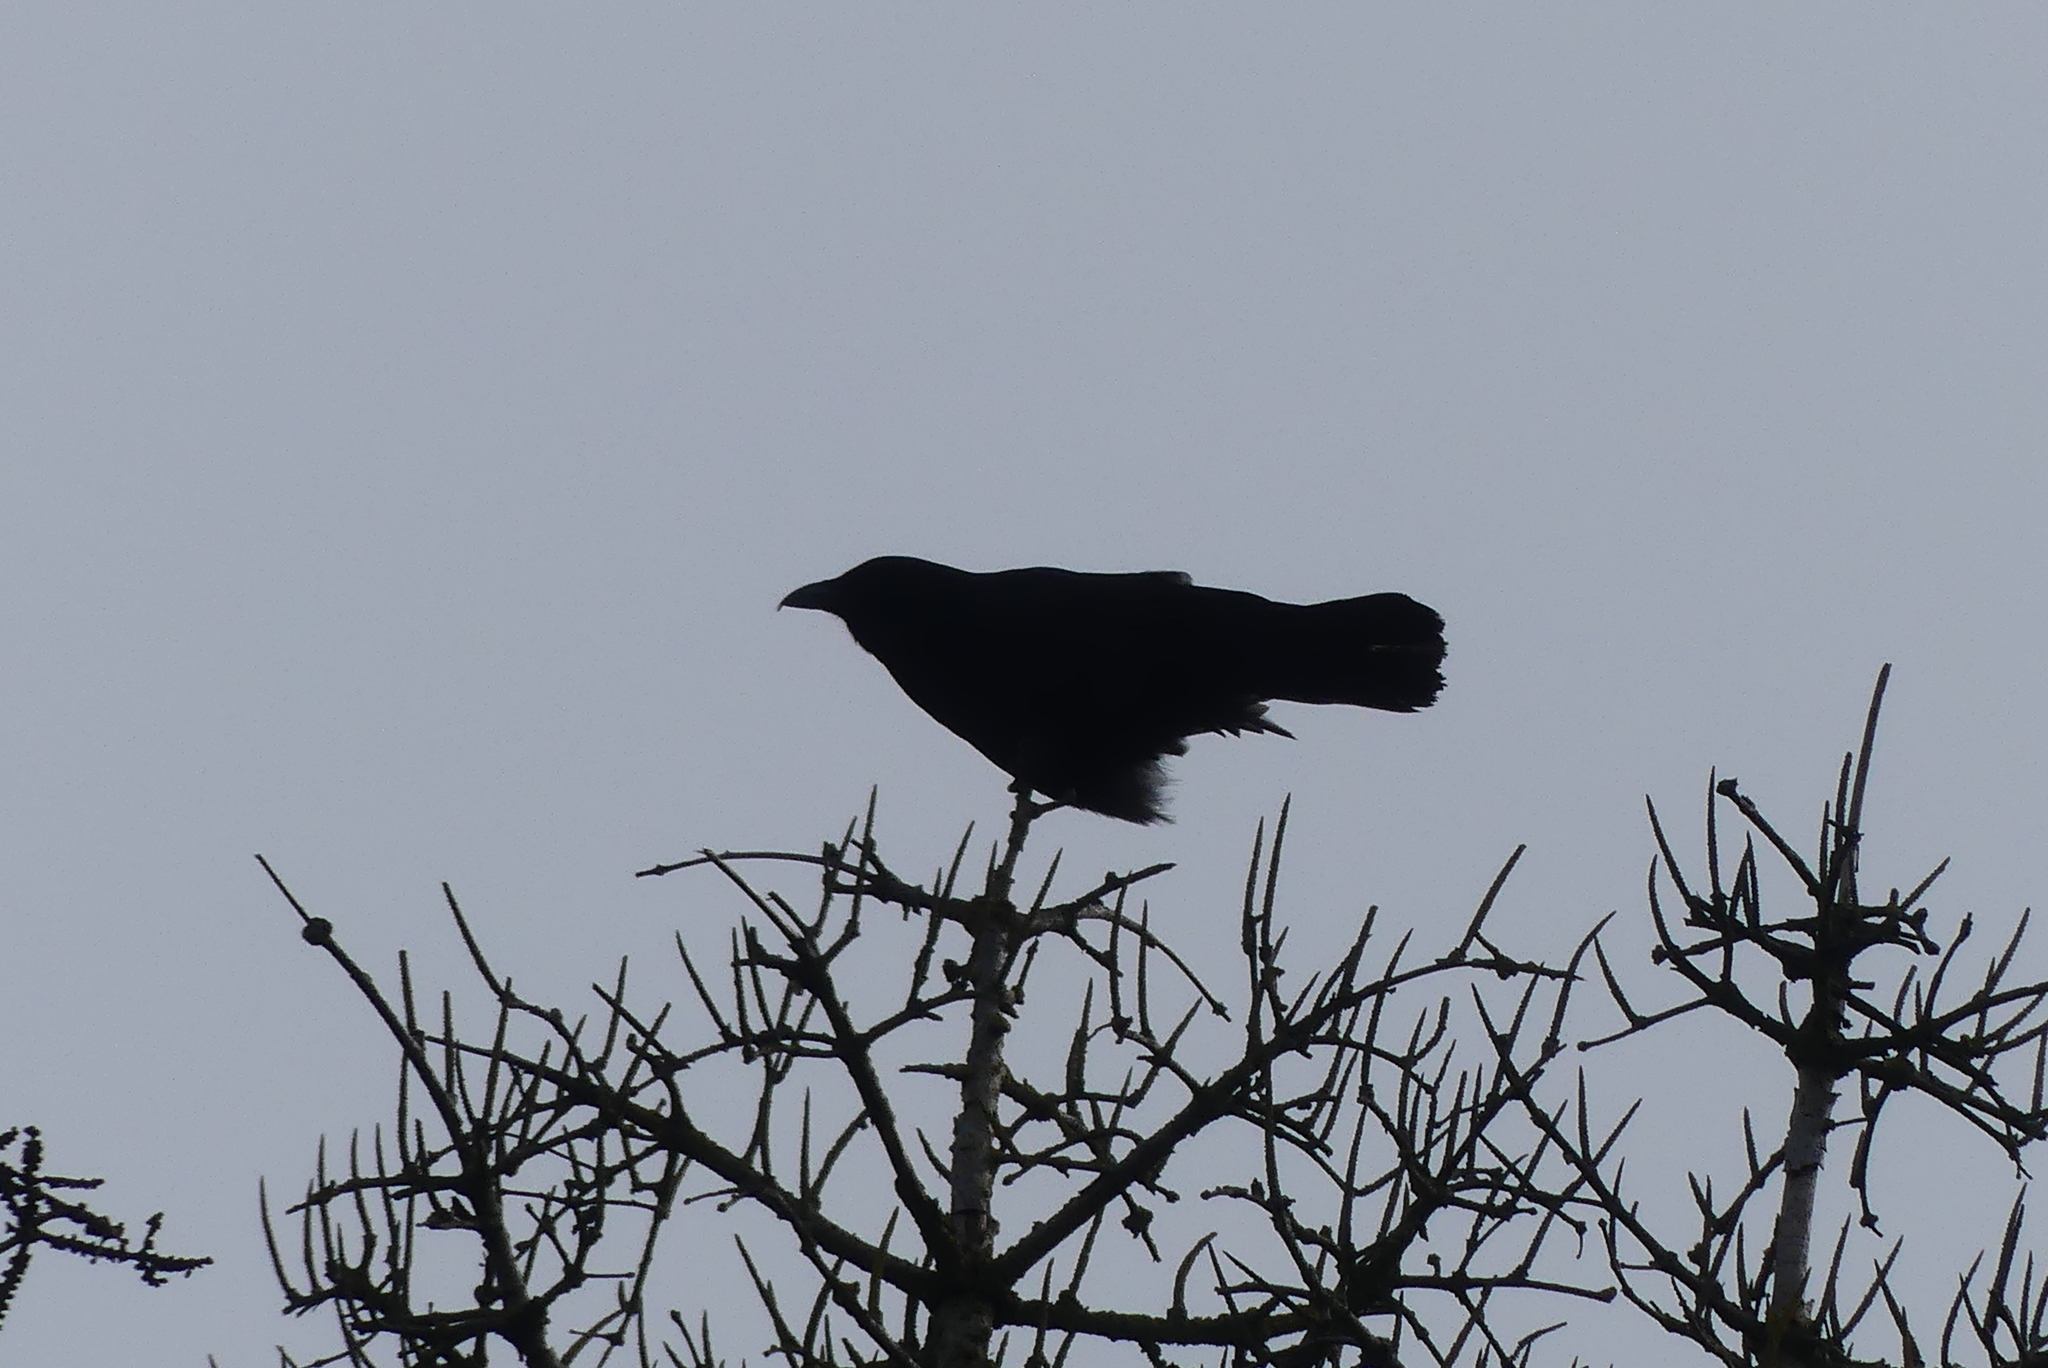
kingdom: Animalia
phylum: Chordata
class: Aves
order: Passeriformes
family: Corvidae
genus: Corvus
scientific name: Corvus corax
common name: Common raven
